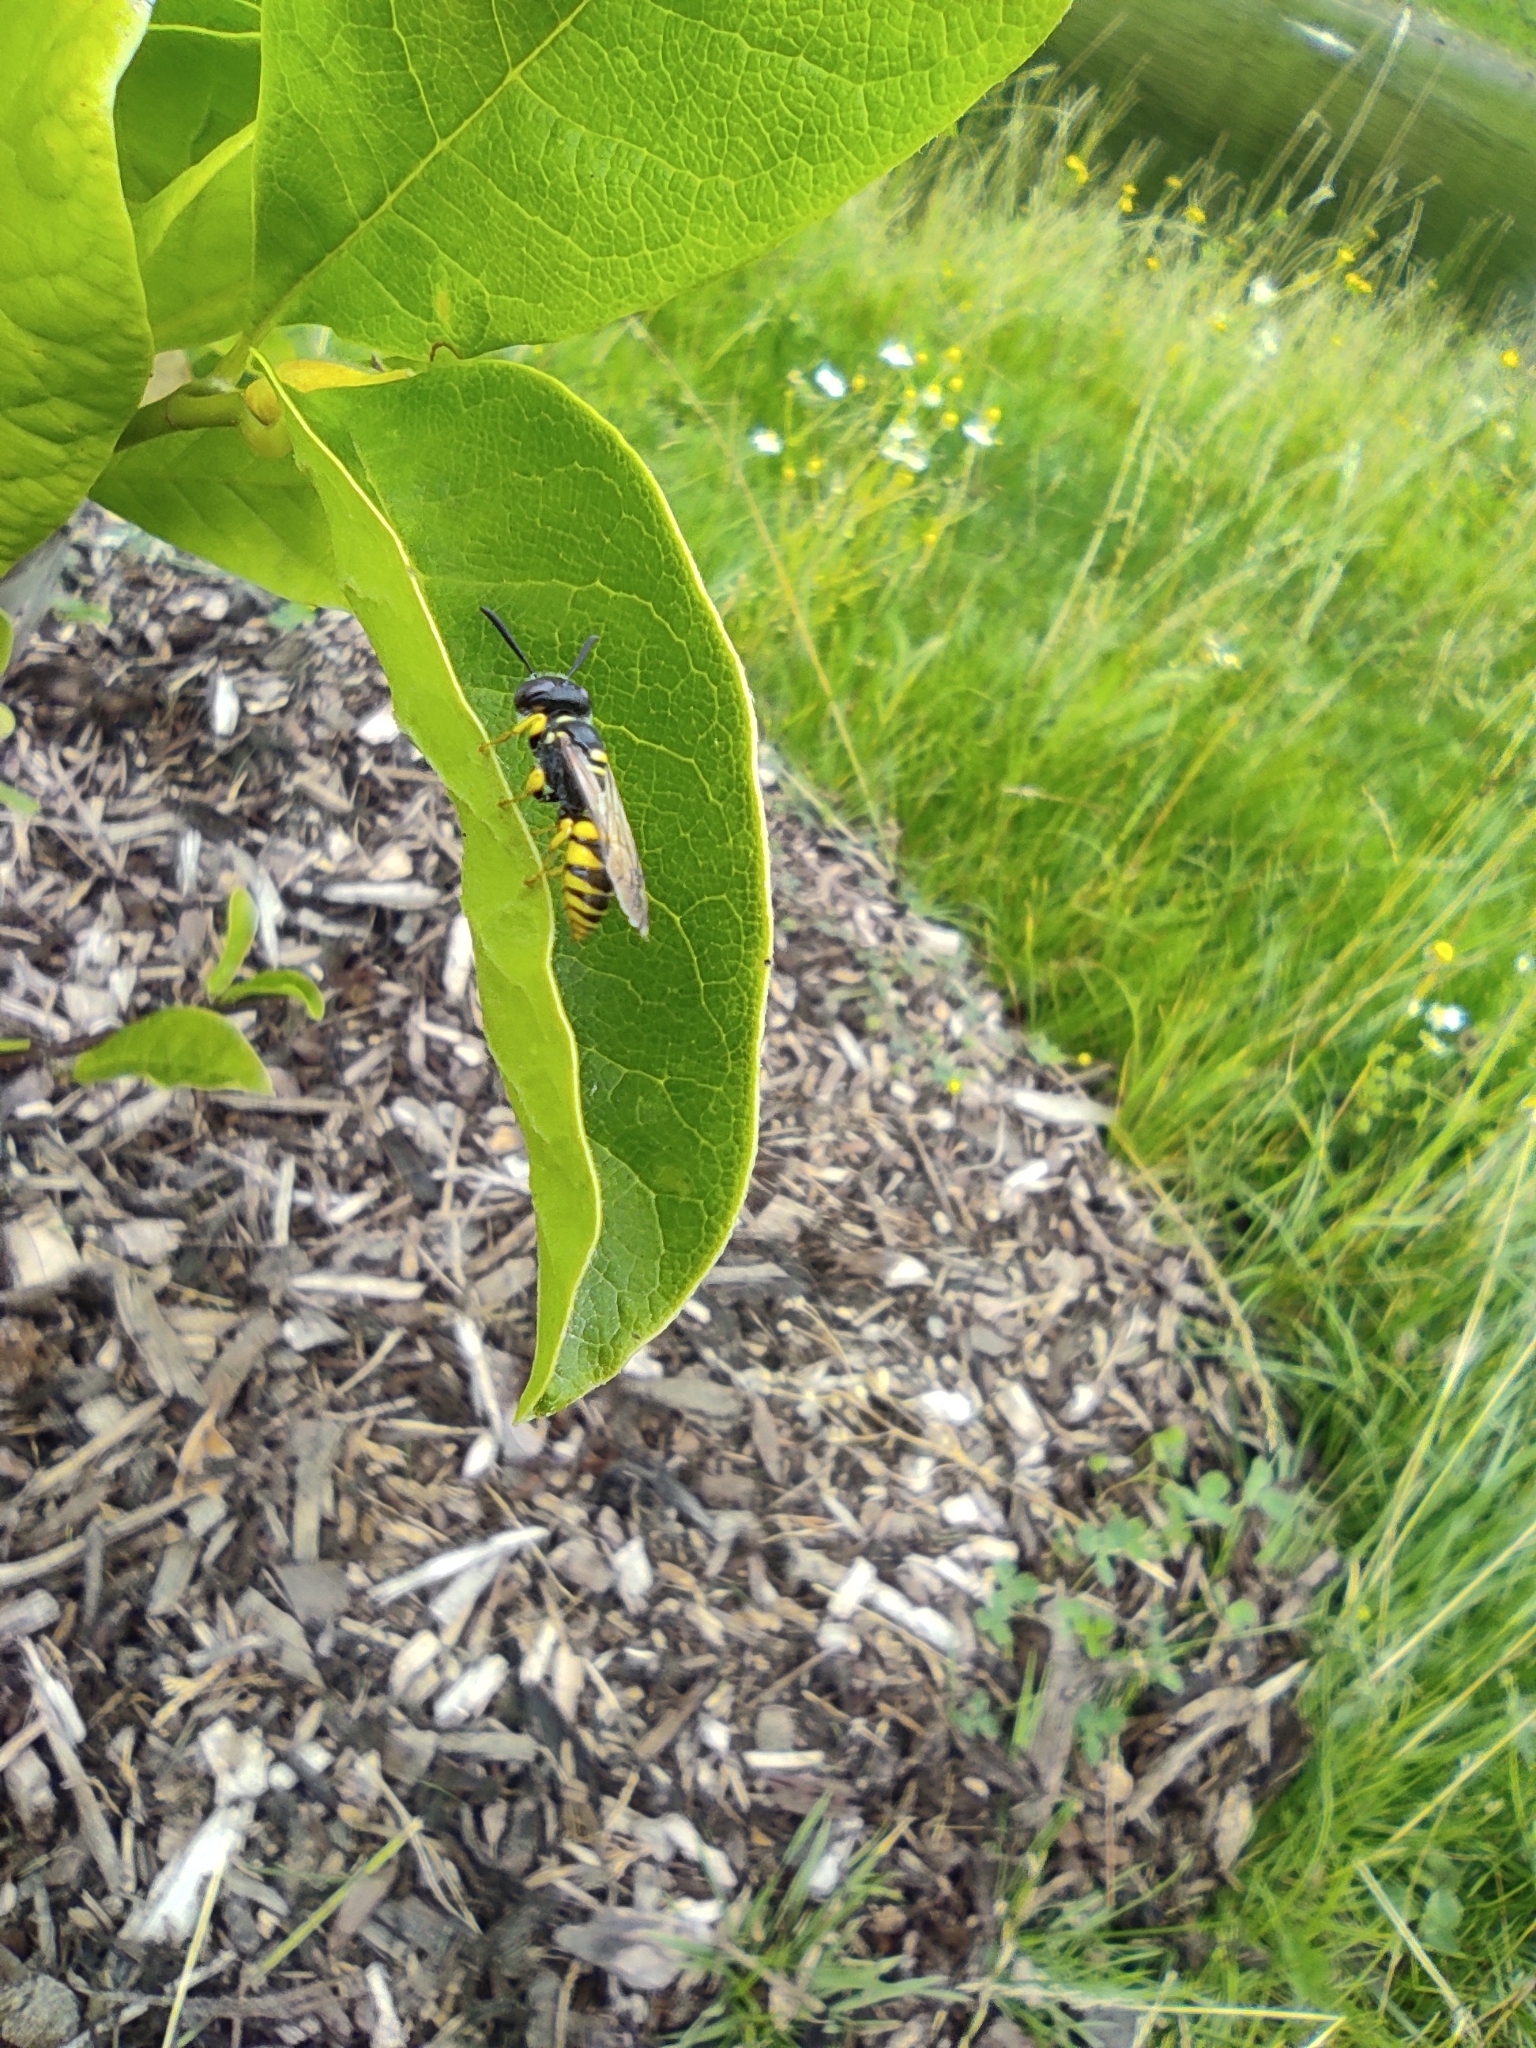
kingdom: Animalia
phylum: Arthropoda
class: Insecta
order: Hymenoptera
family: Crabronidae
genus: Philanthus
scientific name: Philanthus triangulum
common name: Bee wolf
